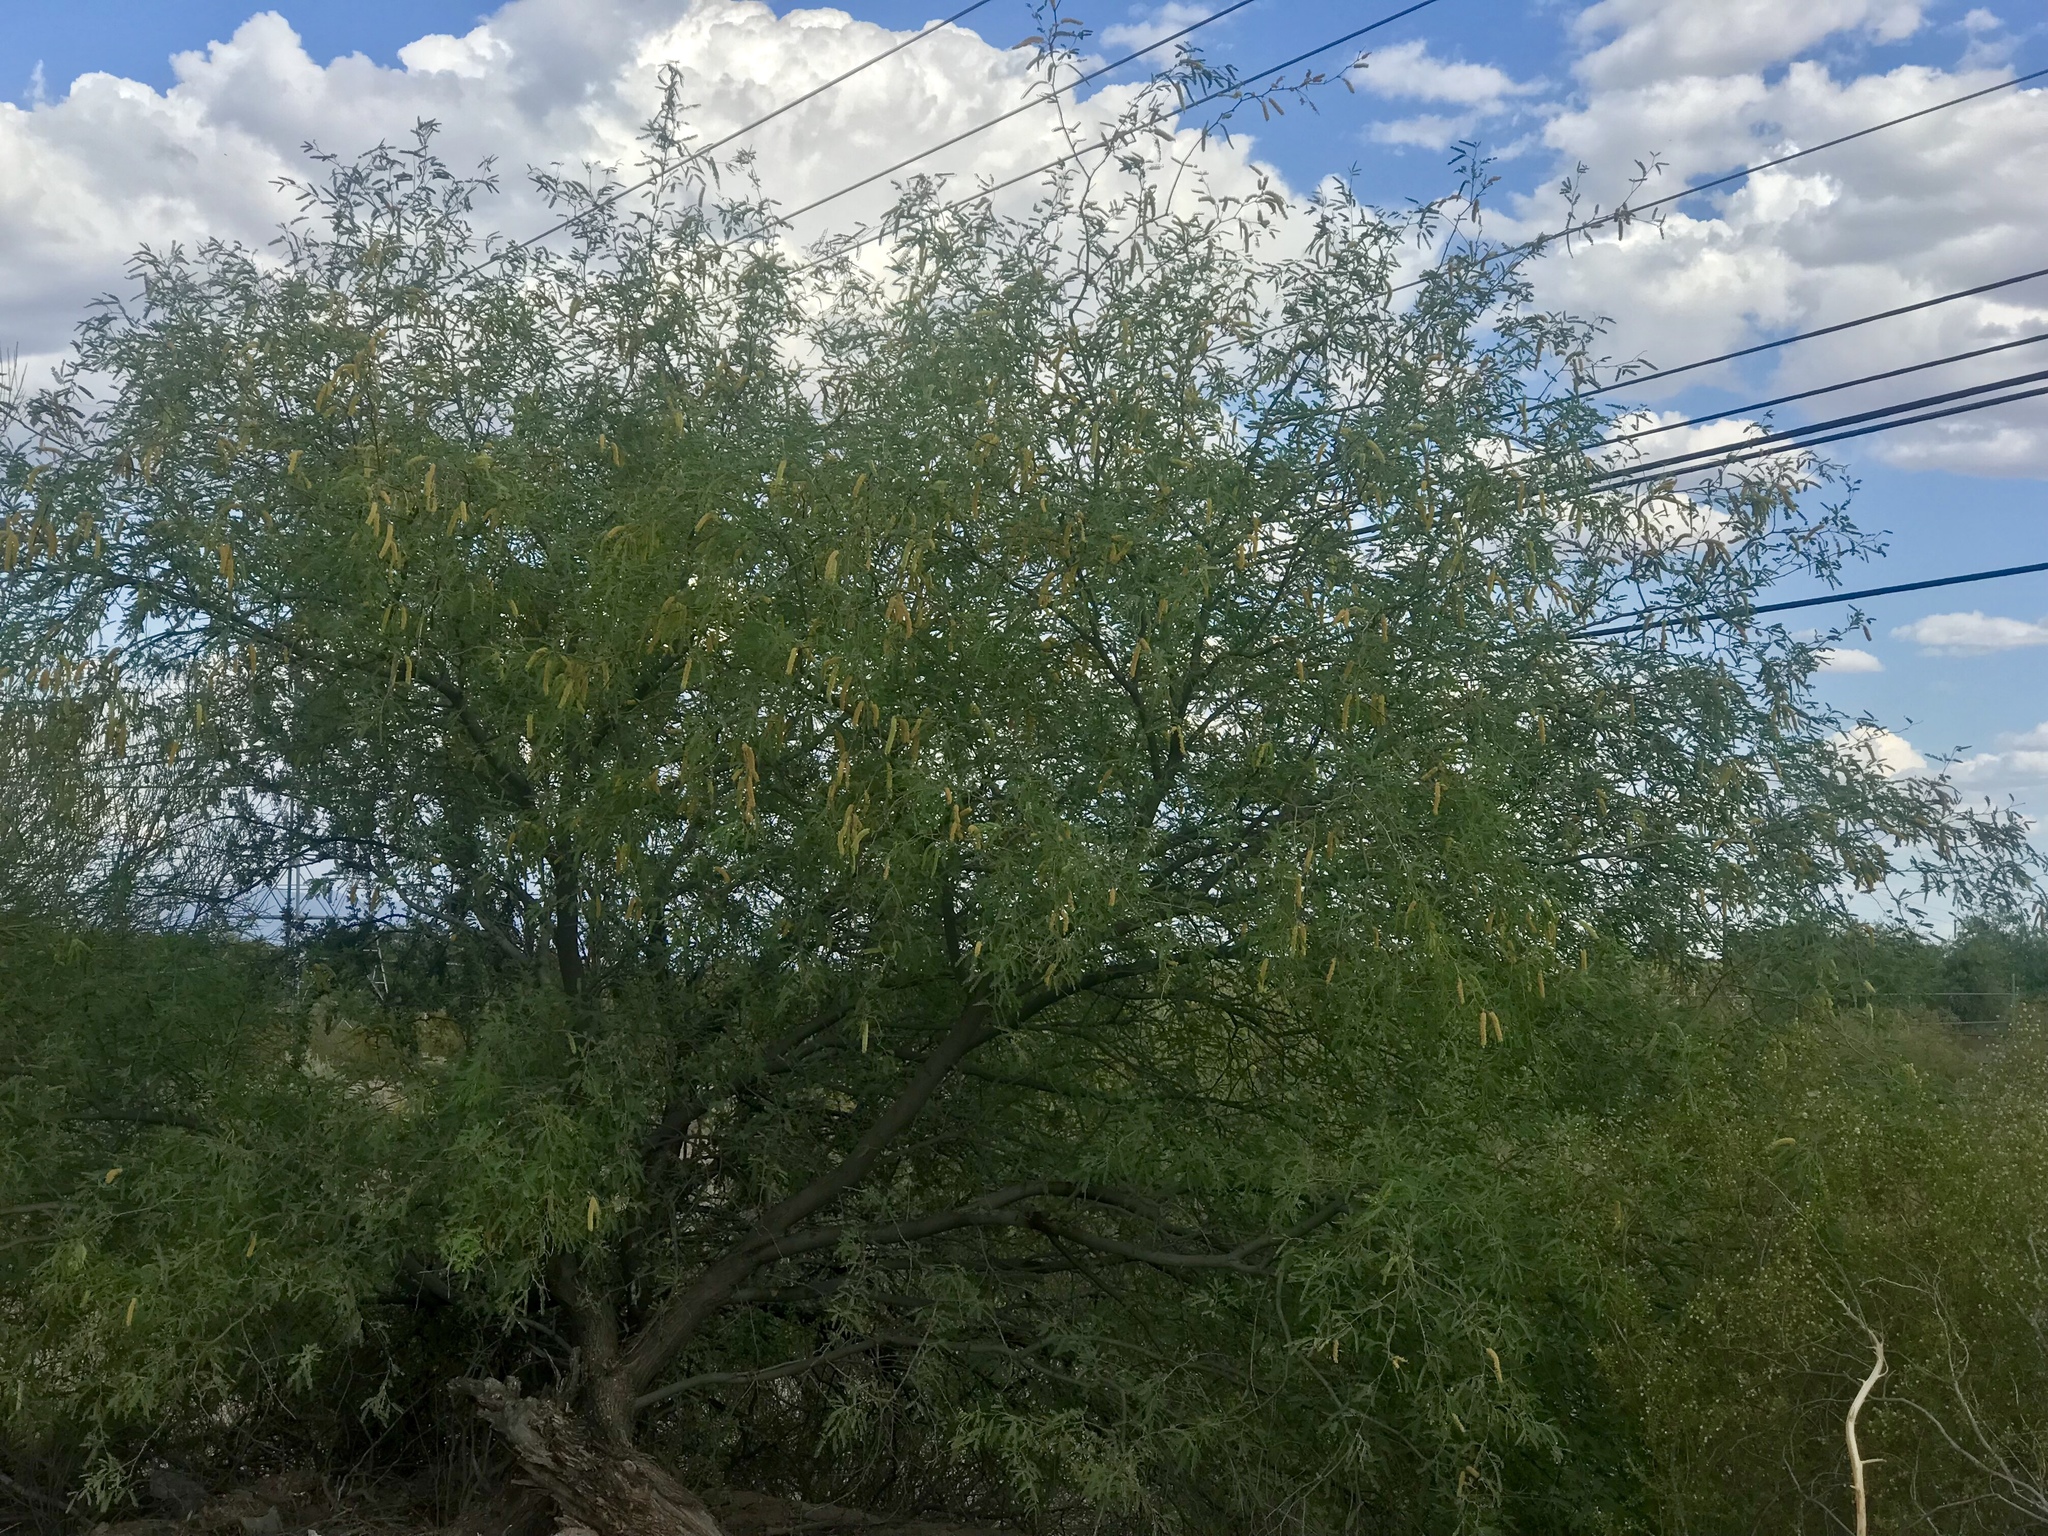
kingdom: Plantae
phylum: Tracheophyta
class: Magnoliopsida
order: Fabales
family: Fabaceae
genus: Prosopis
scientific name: Prosopis velutina
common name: Velvet mesquite
